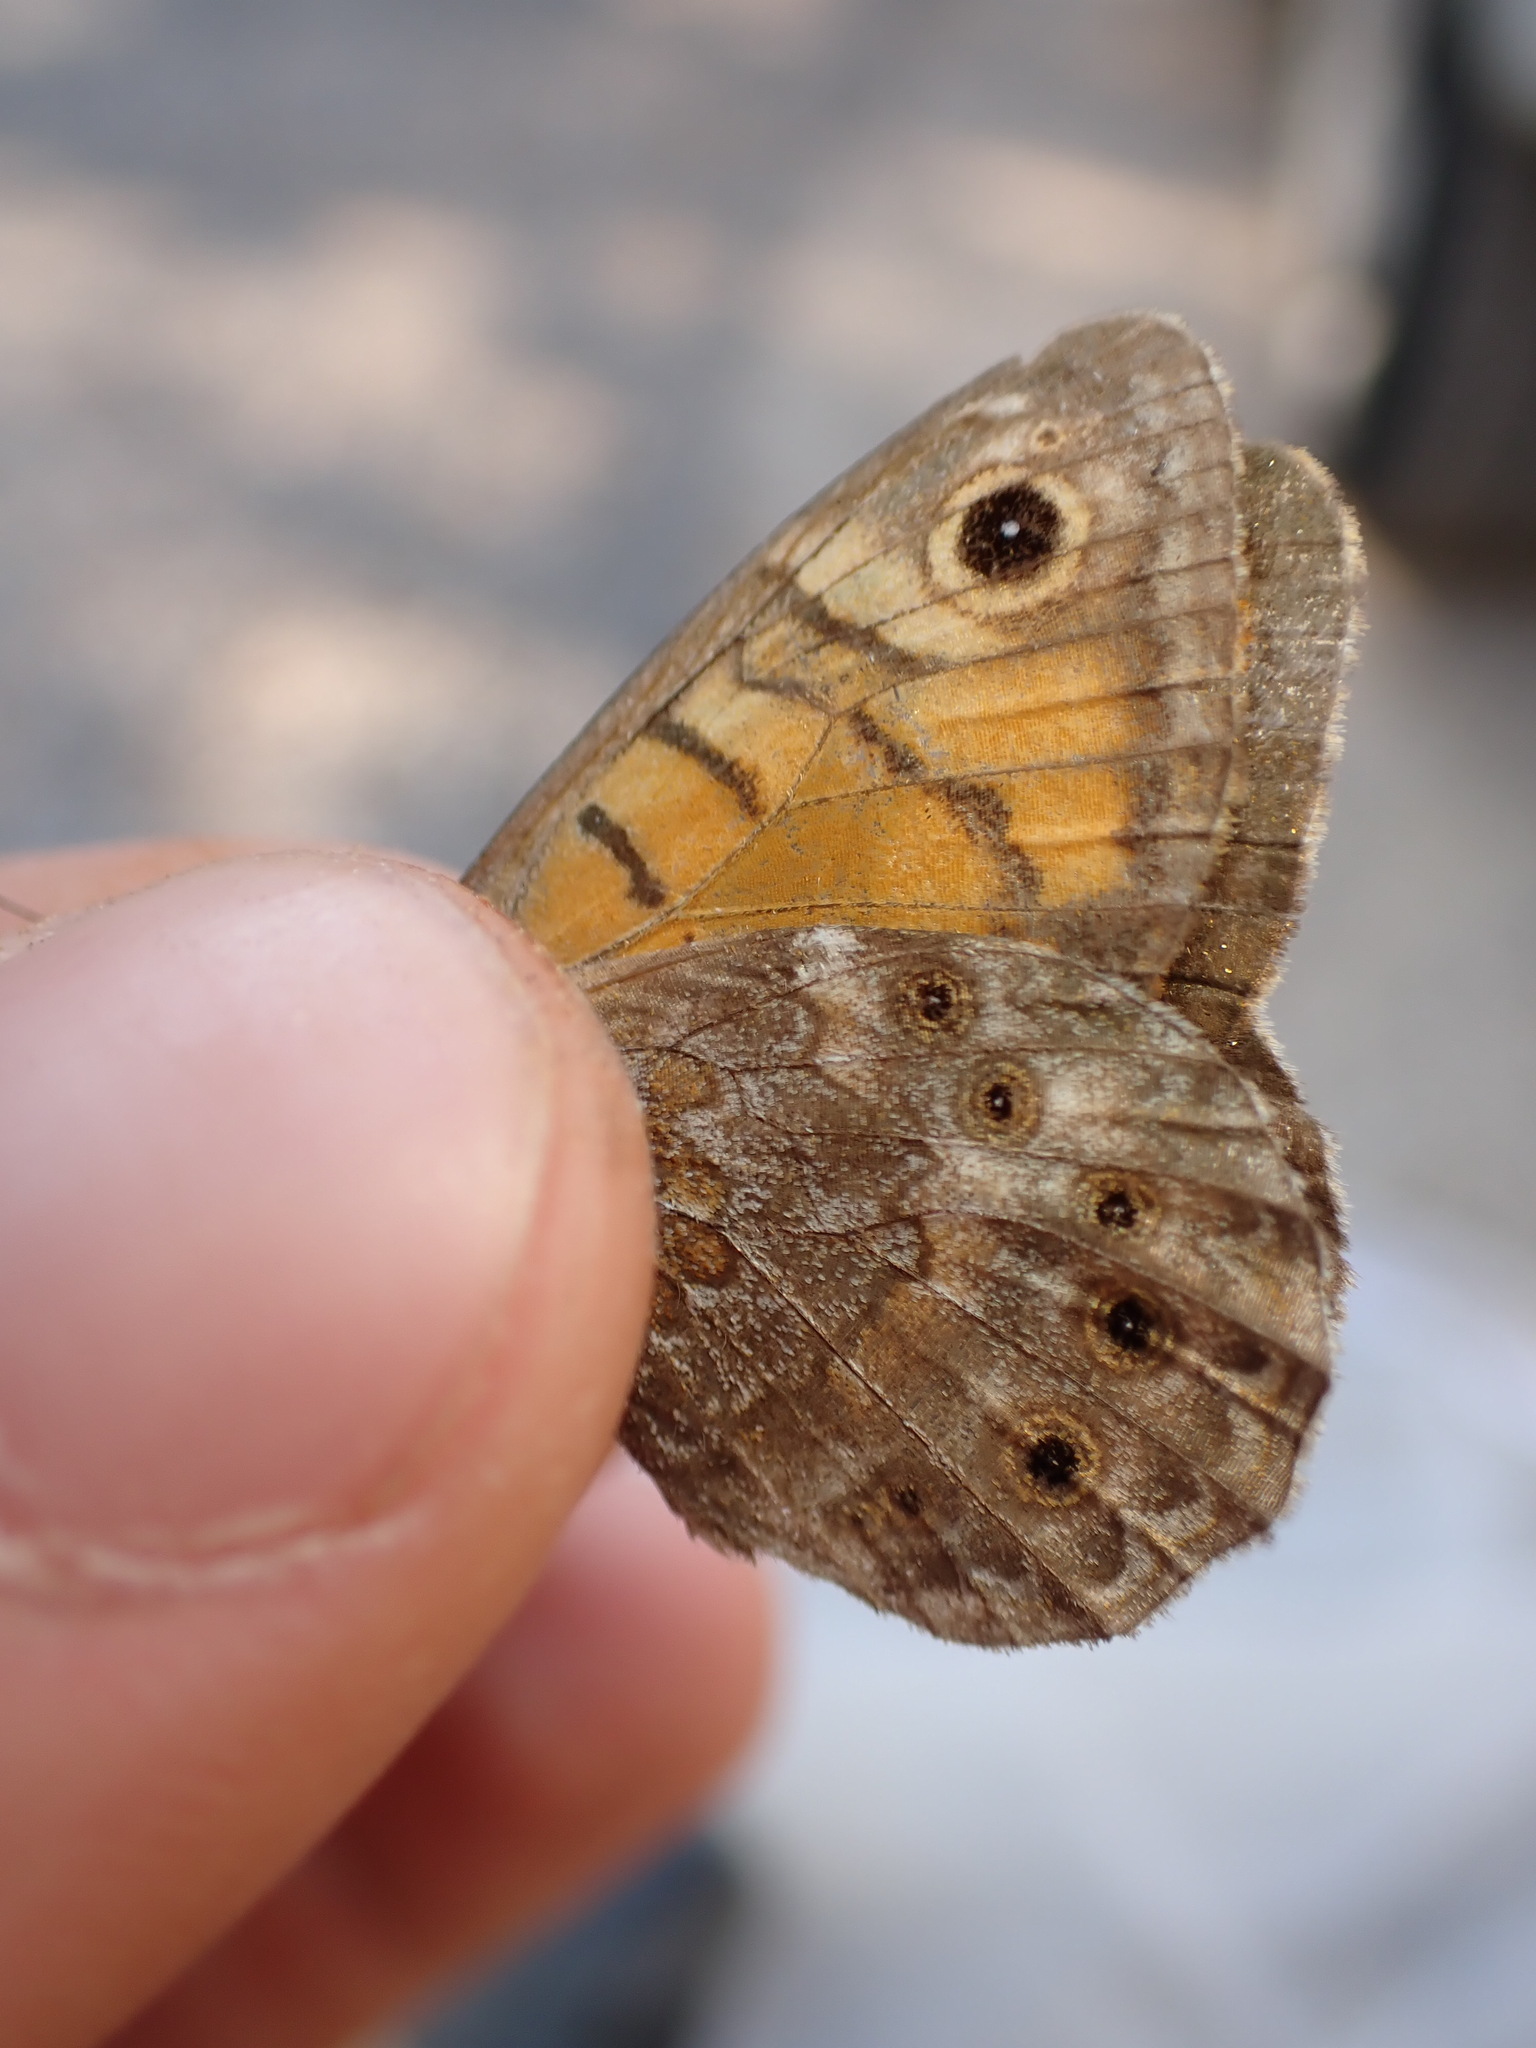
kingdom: Animalia
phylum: Arthropoda
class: Insecta
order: Lepidoptera
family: Nymphalidae
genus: Pararge
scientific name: Pararge Lasiommata megera
